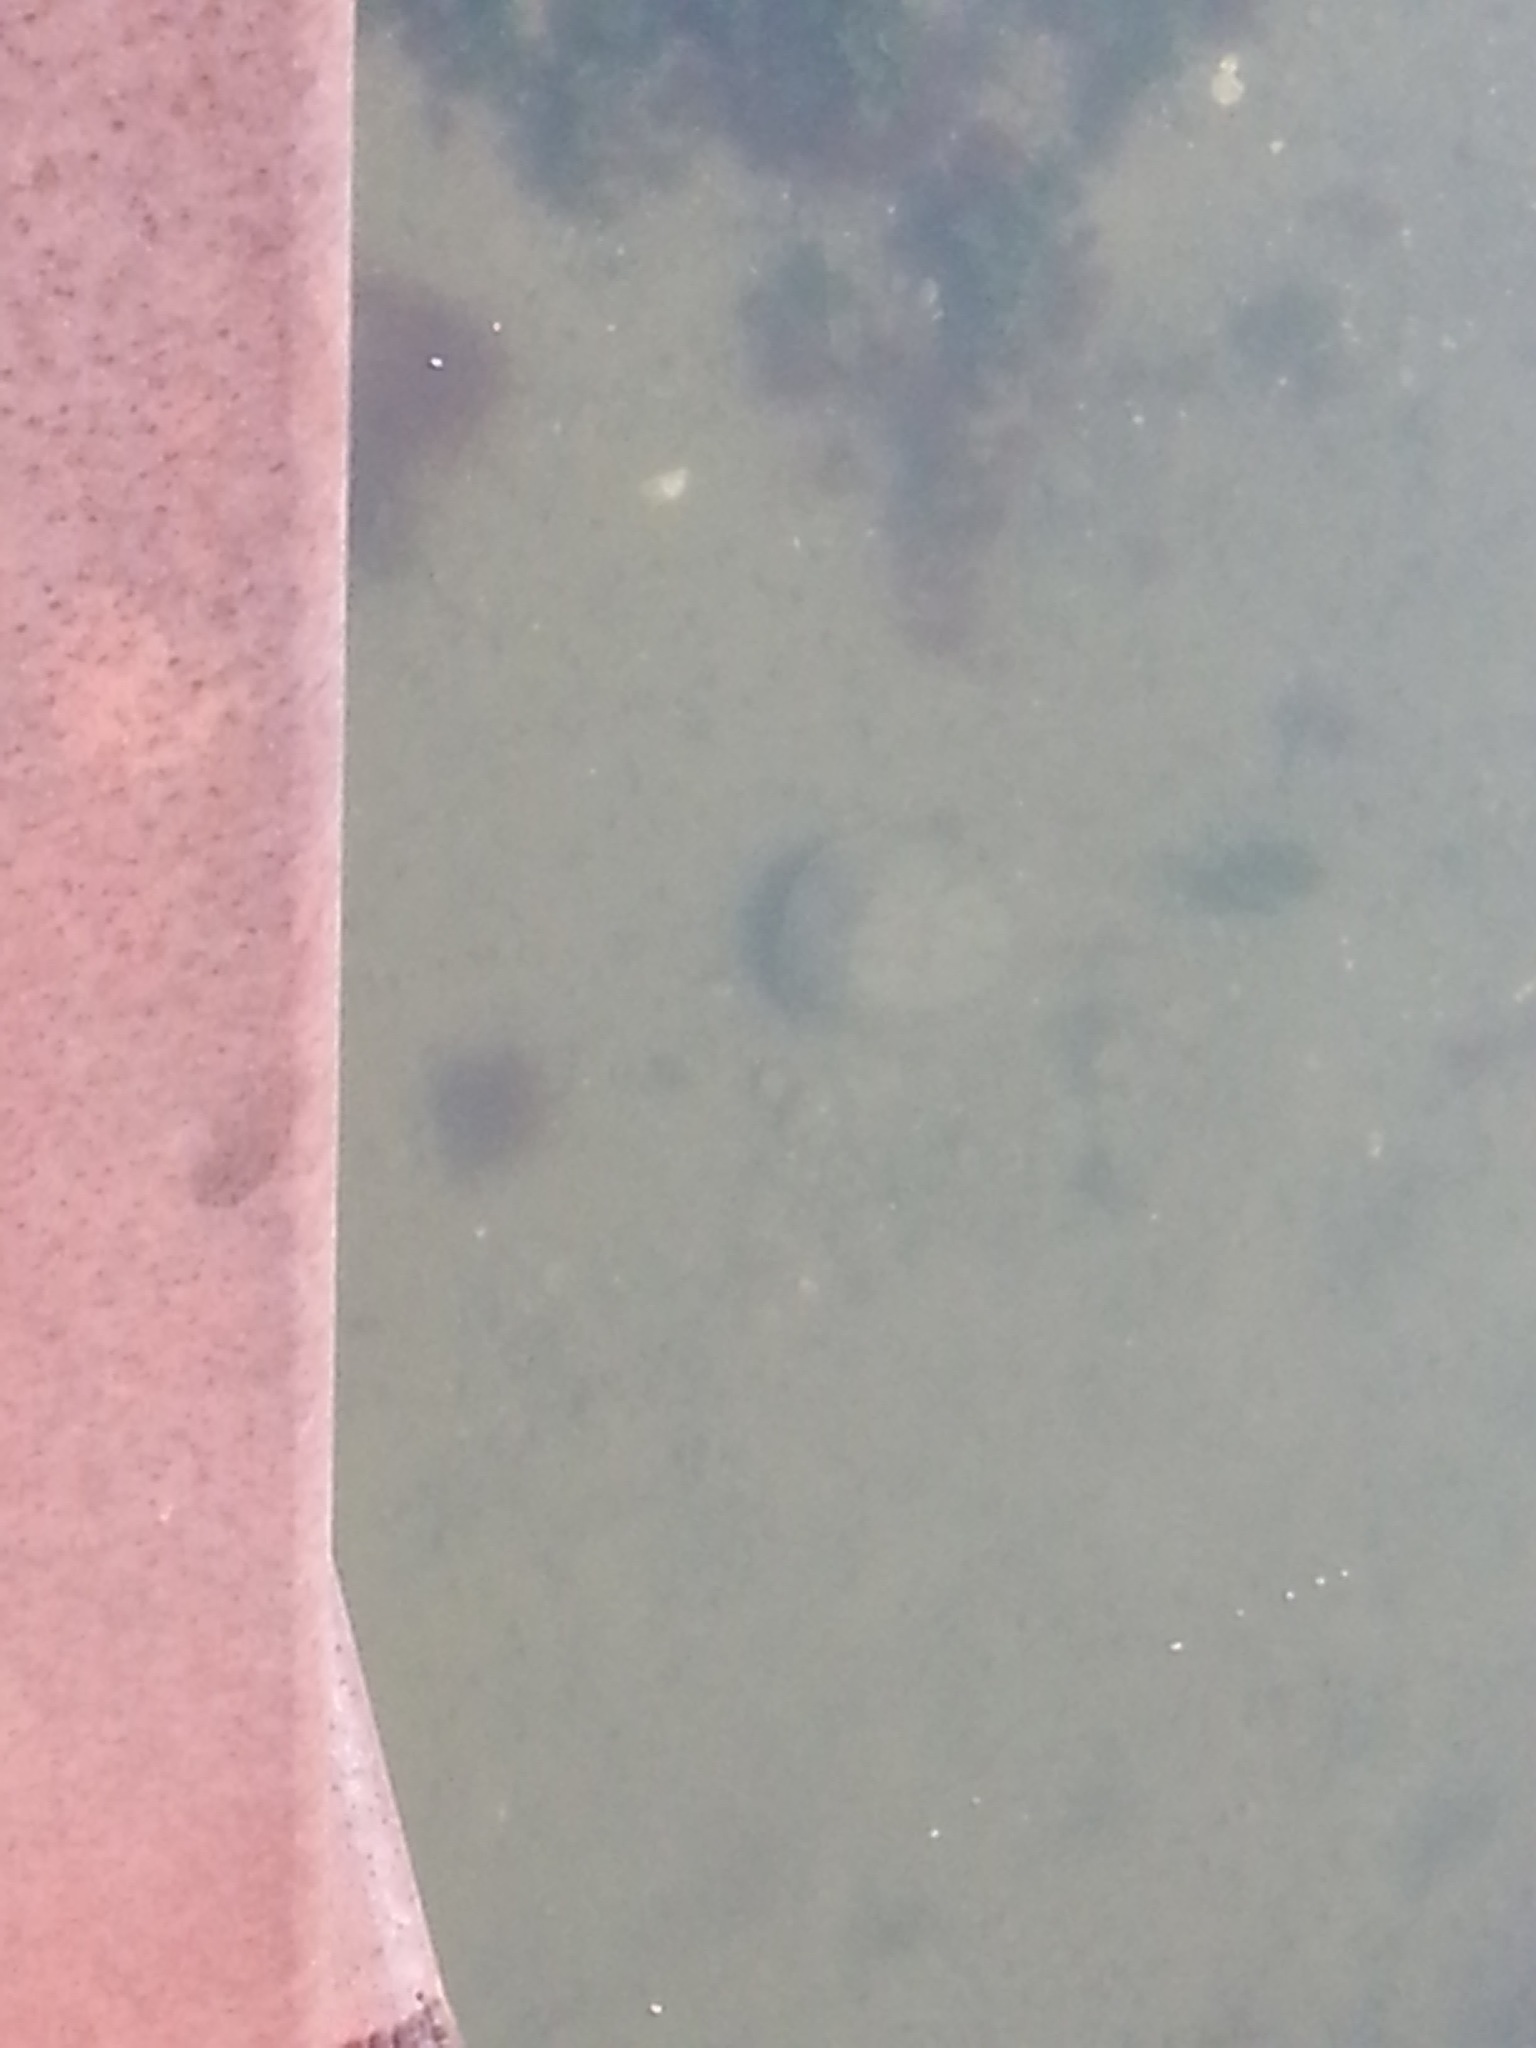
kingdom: Animalia
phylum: Arthropoda
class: Merostomata
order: Xiphosurida
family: Limulidae
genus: Limulus
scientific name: Limulus polyphemus
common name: Horseshoe crab
